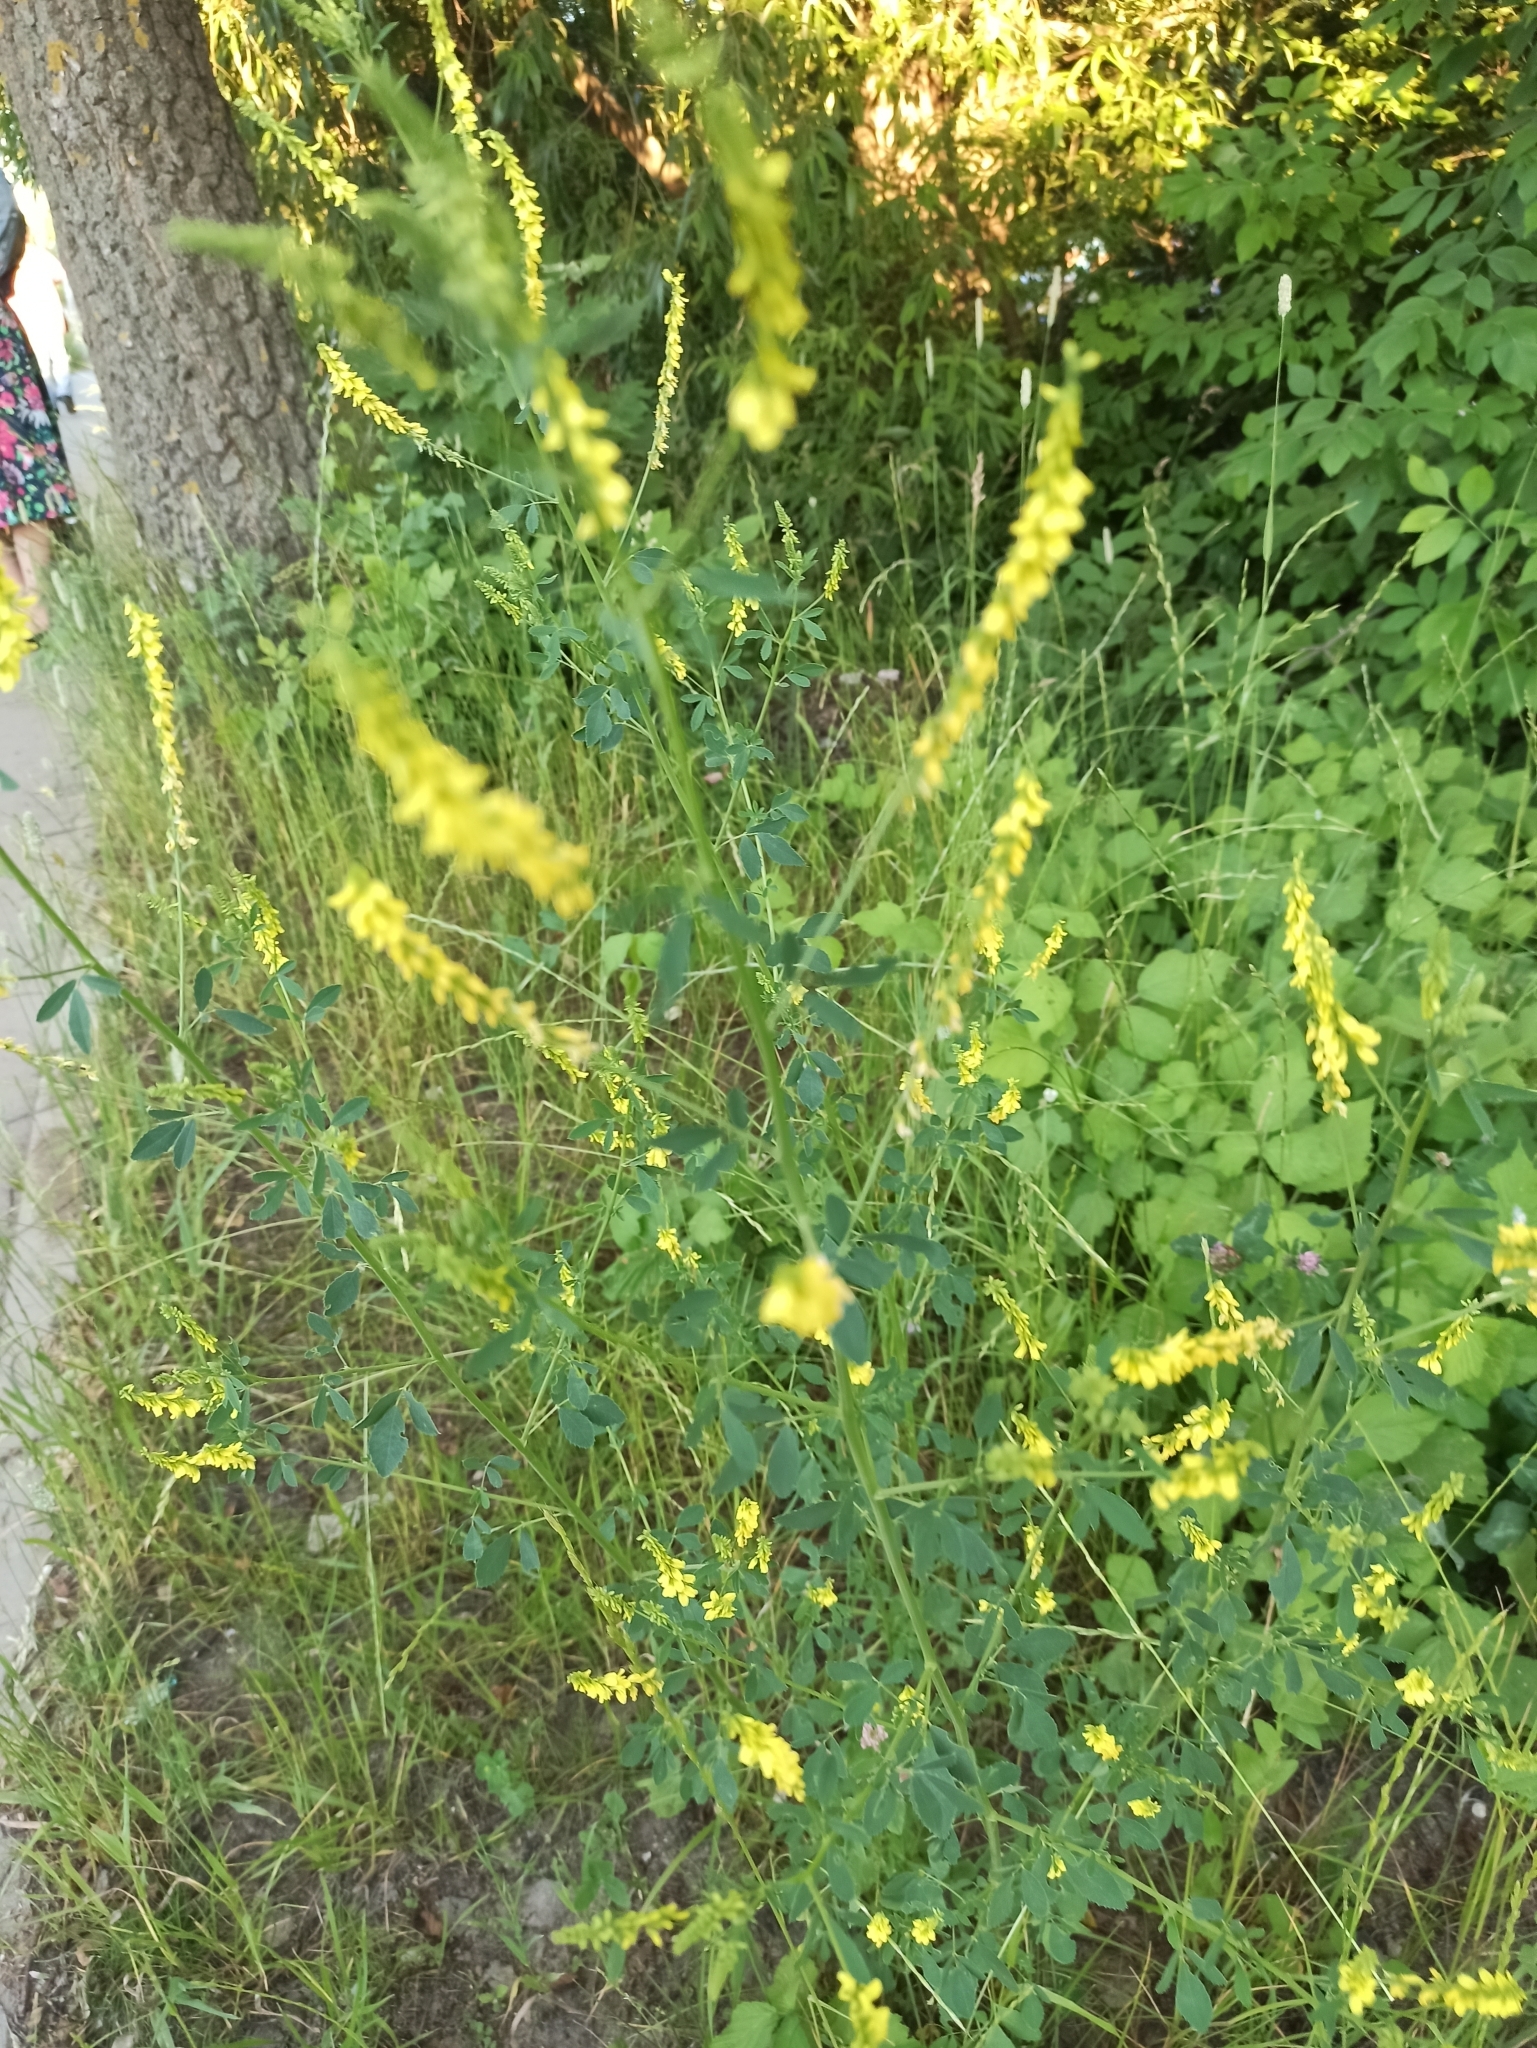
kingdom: Plantae
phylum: Tracheophyta
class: Magnoliopsida
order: Fabales
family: Fabaceae
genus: Melilotus
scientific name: Melilotus officinalis
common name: Sweetclover
